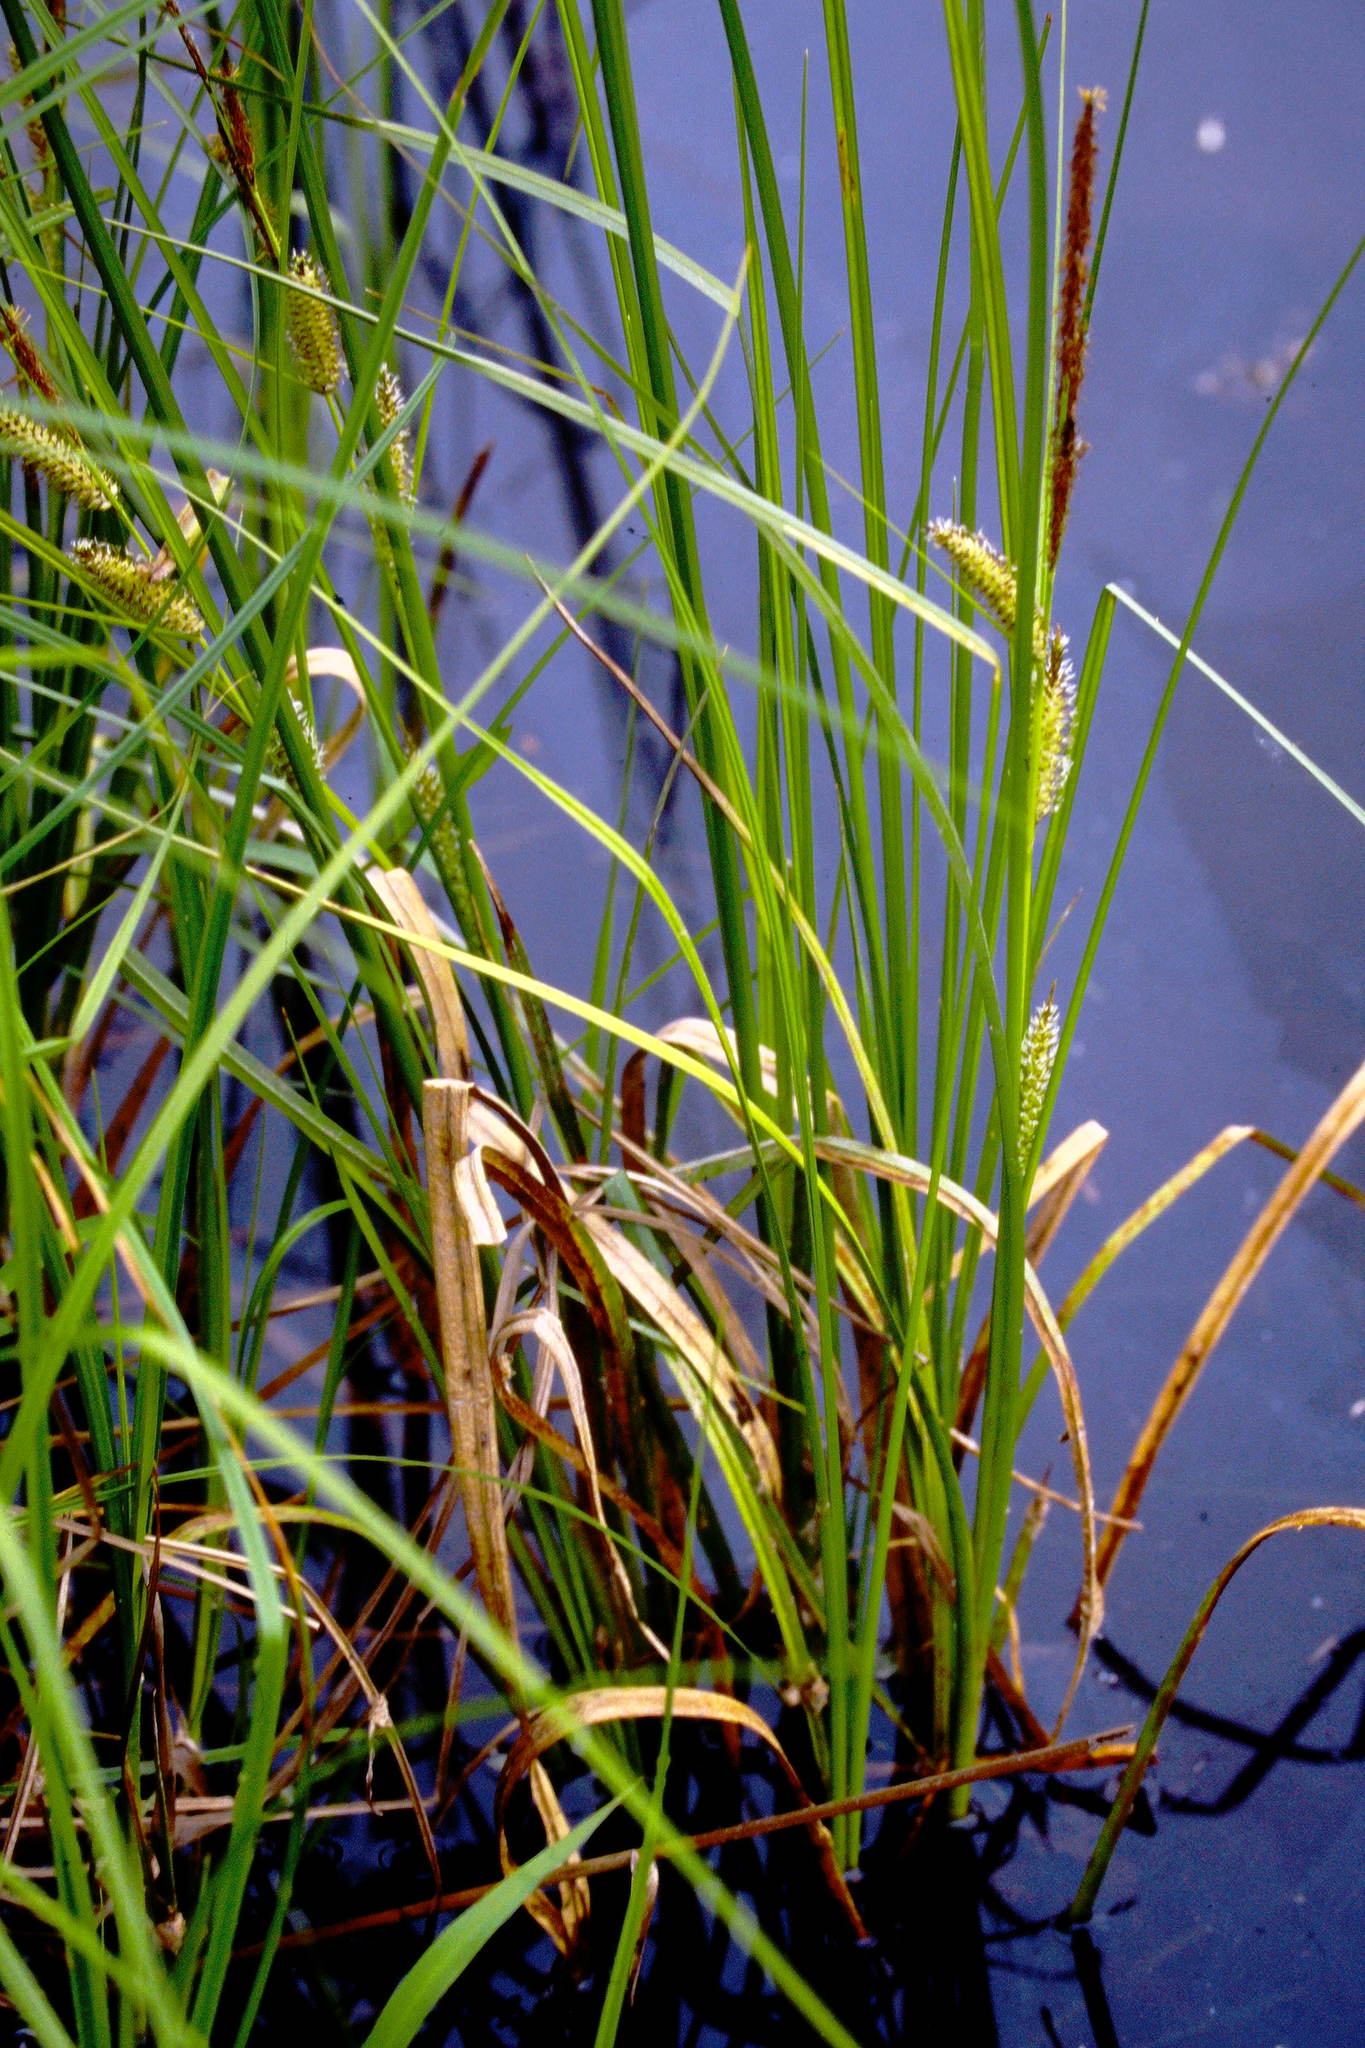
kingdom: Plantae
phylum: Tracheophyta
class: Liliopsida
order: Poales
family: Cyperaceae
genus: Carex
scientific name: Carex utriculata
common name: Beaked sedge
